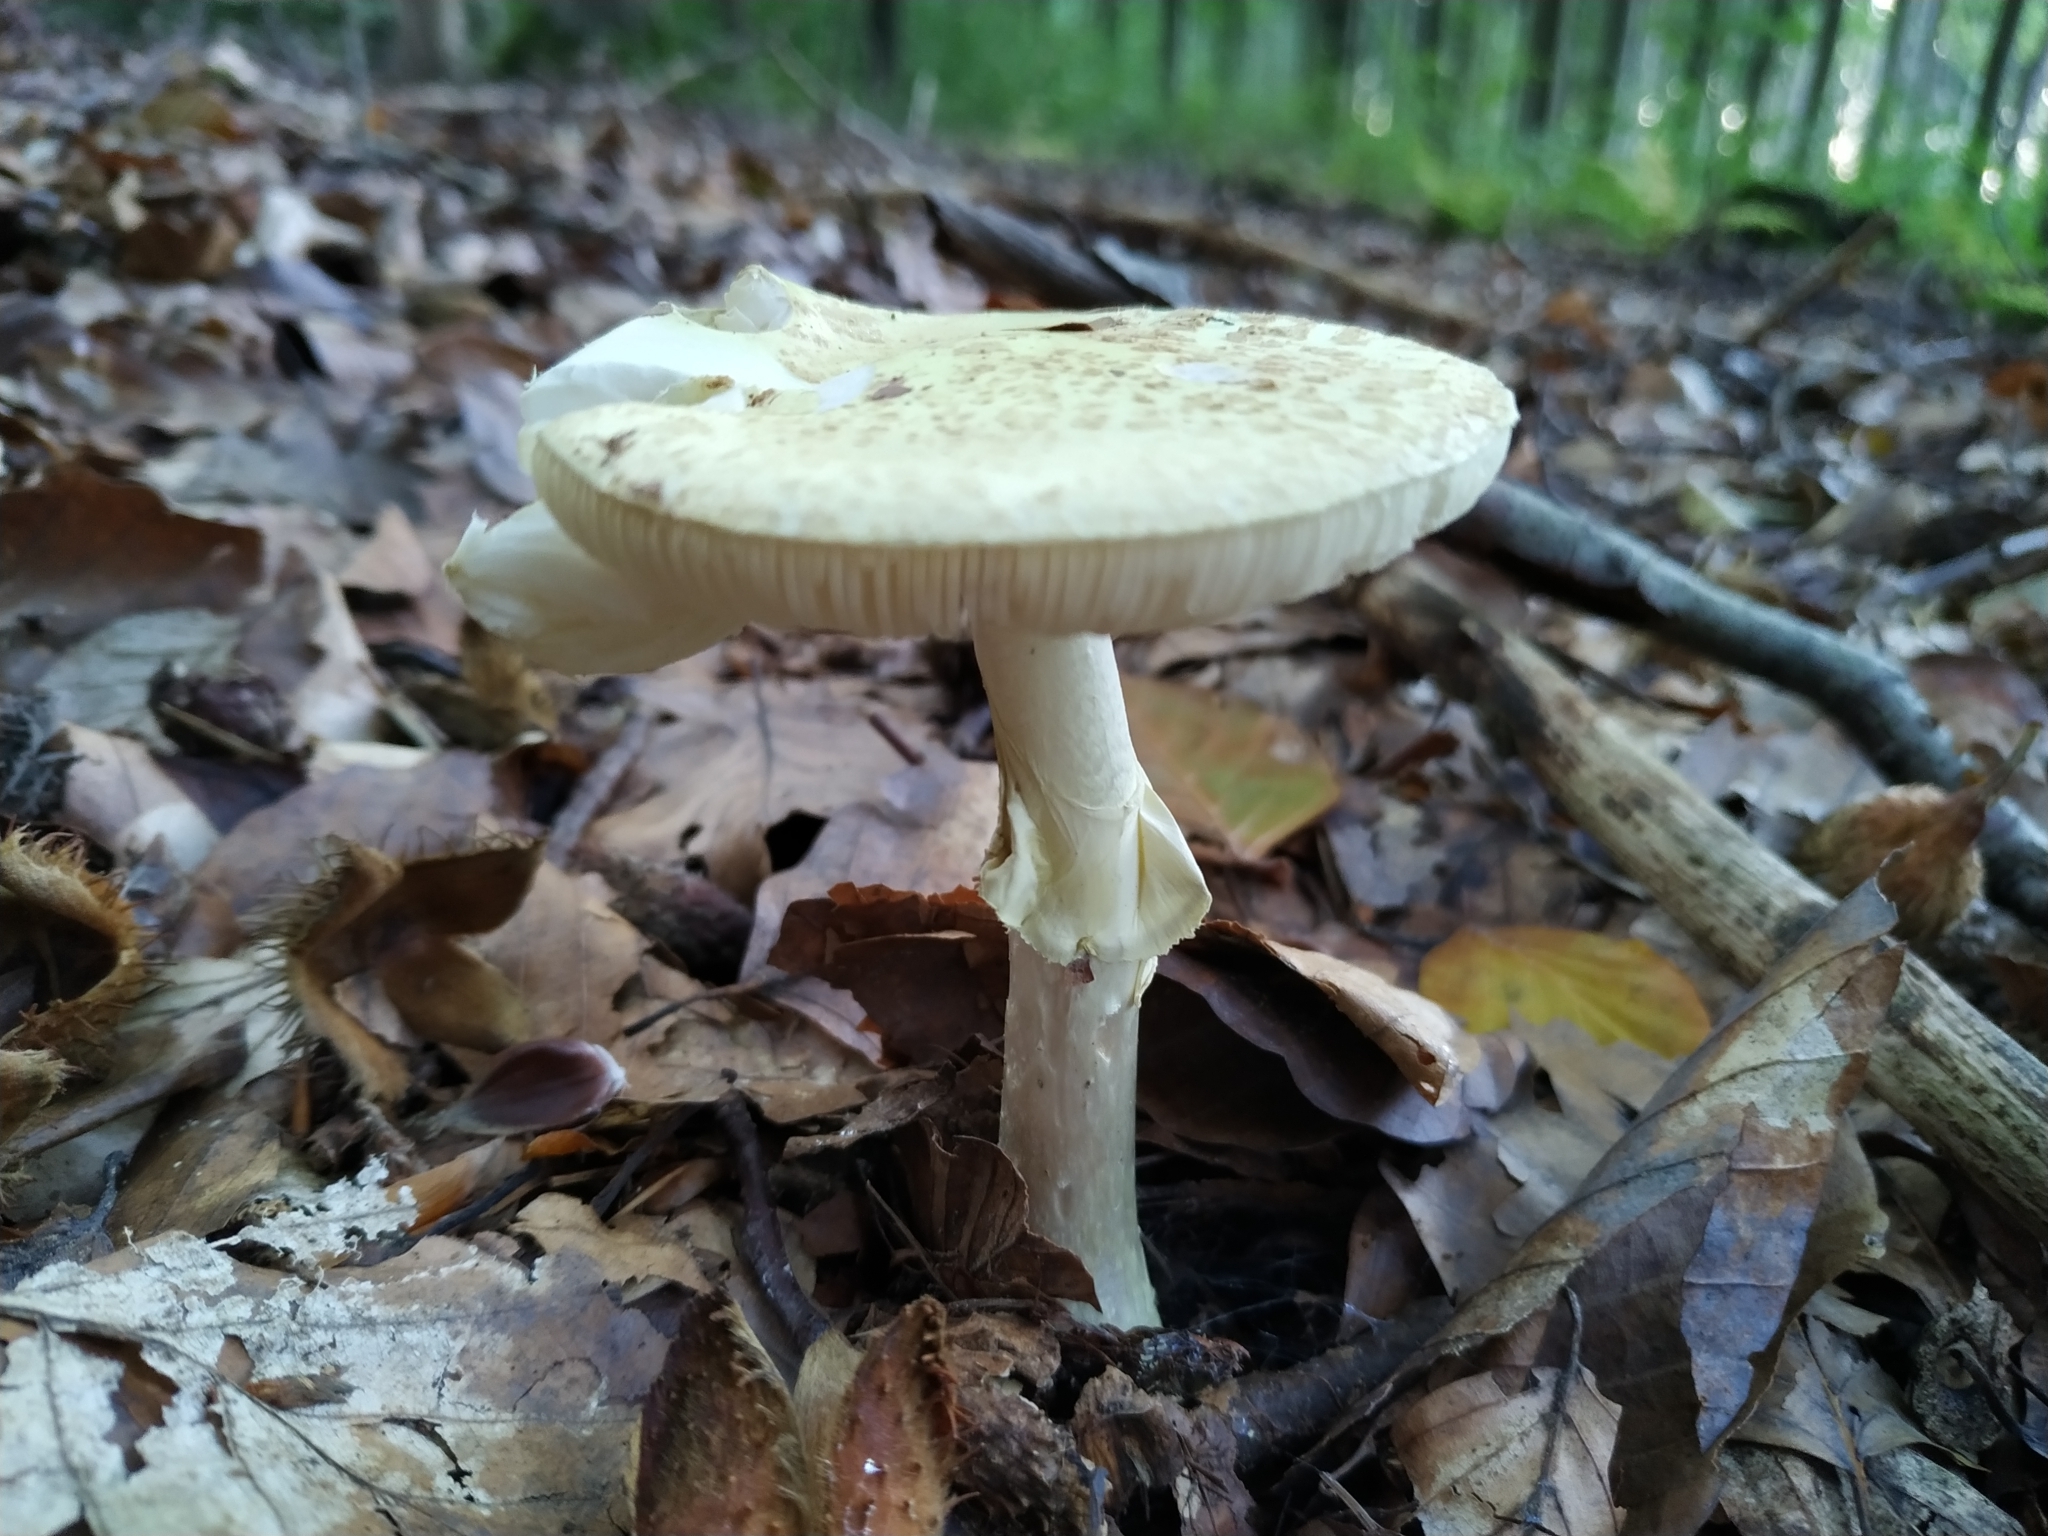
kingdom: Fungi
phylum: Basidiomycota
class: Agaricomycetes
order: Agaricales
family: Amanitaceae
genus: Amanita
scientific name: Amanita citrina
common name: False death-cap
